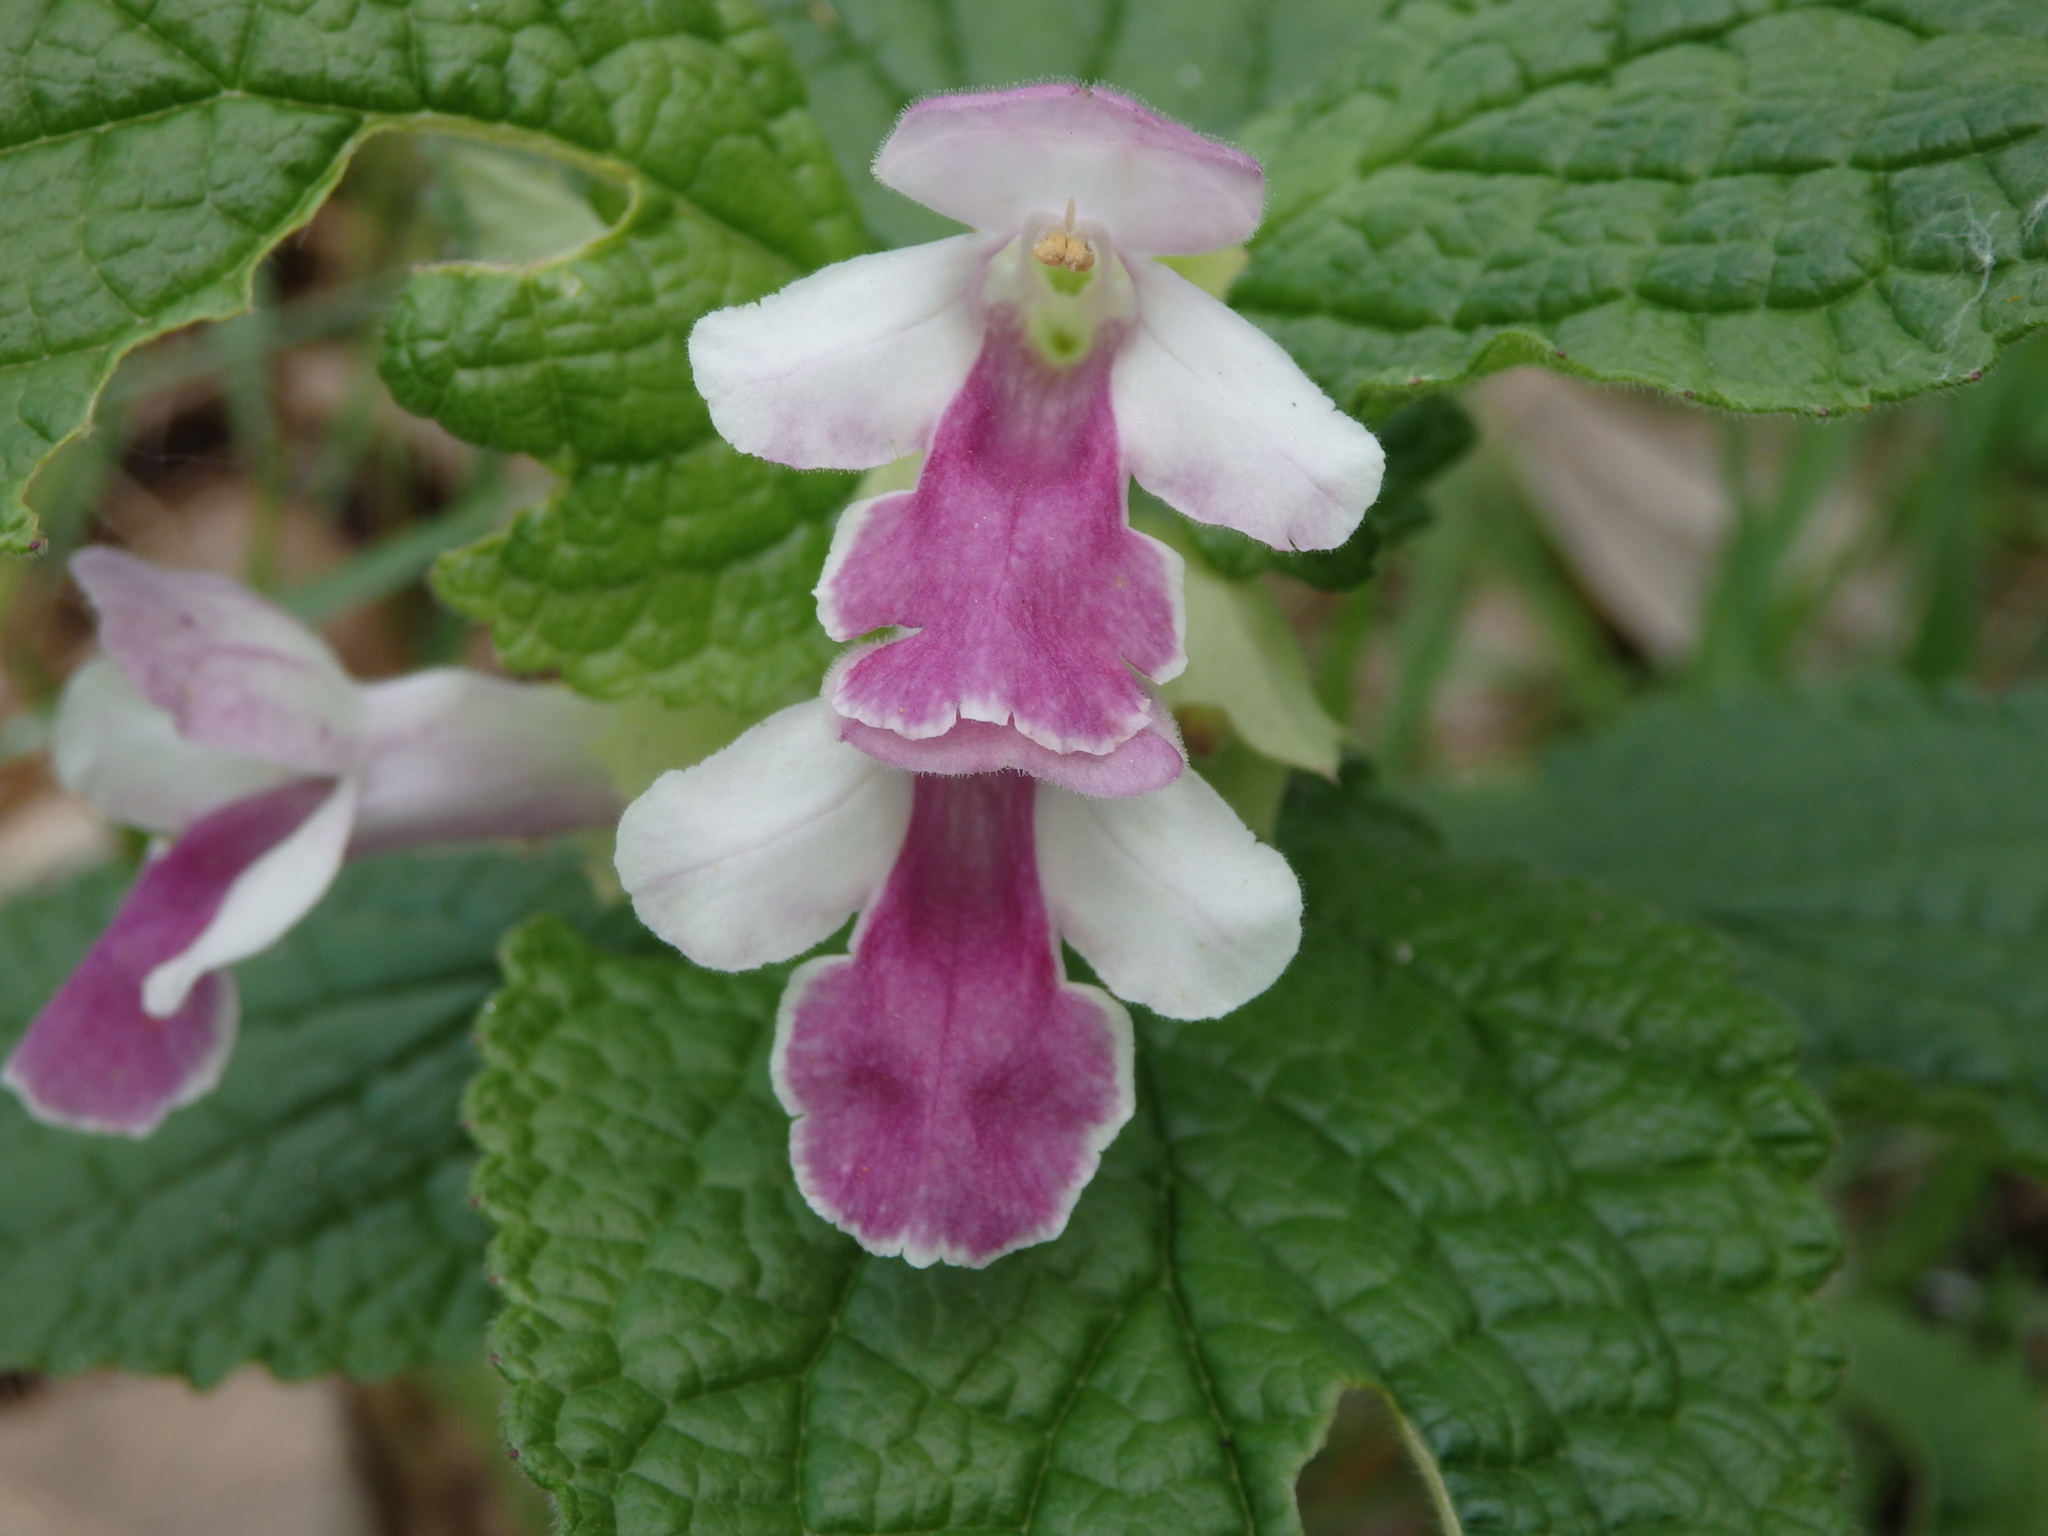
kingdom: Plantae
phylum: Tracheophyta
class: Magnoliopsida
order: Lamiales
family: Lamiaceae
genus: Melittis
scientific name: Melittis melissophyllum
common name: Bastard balm
